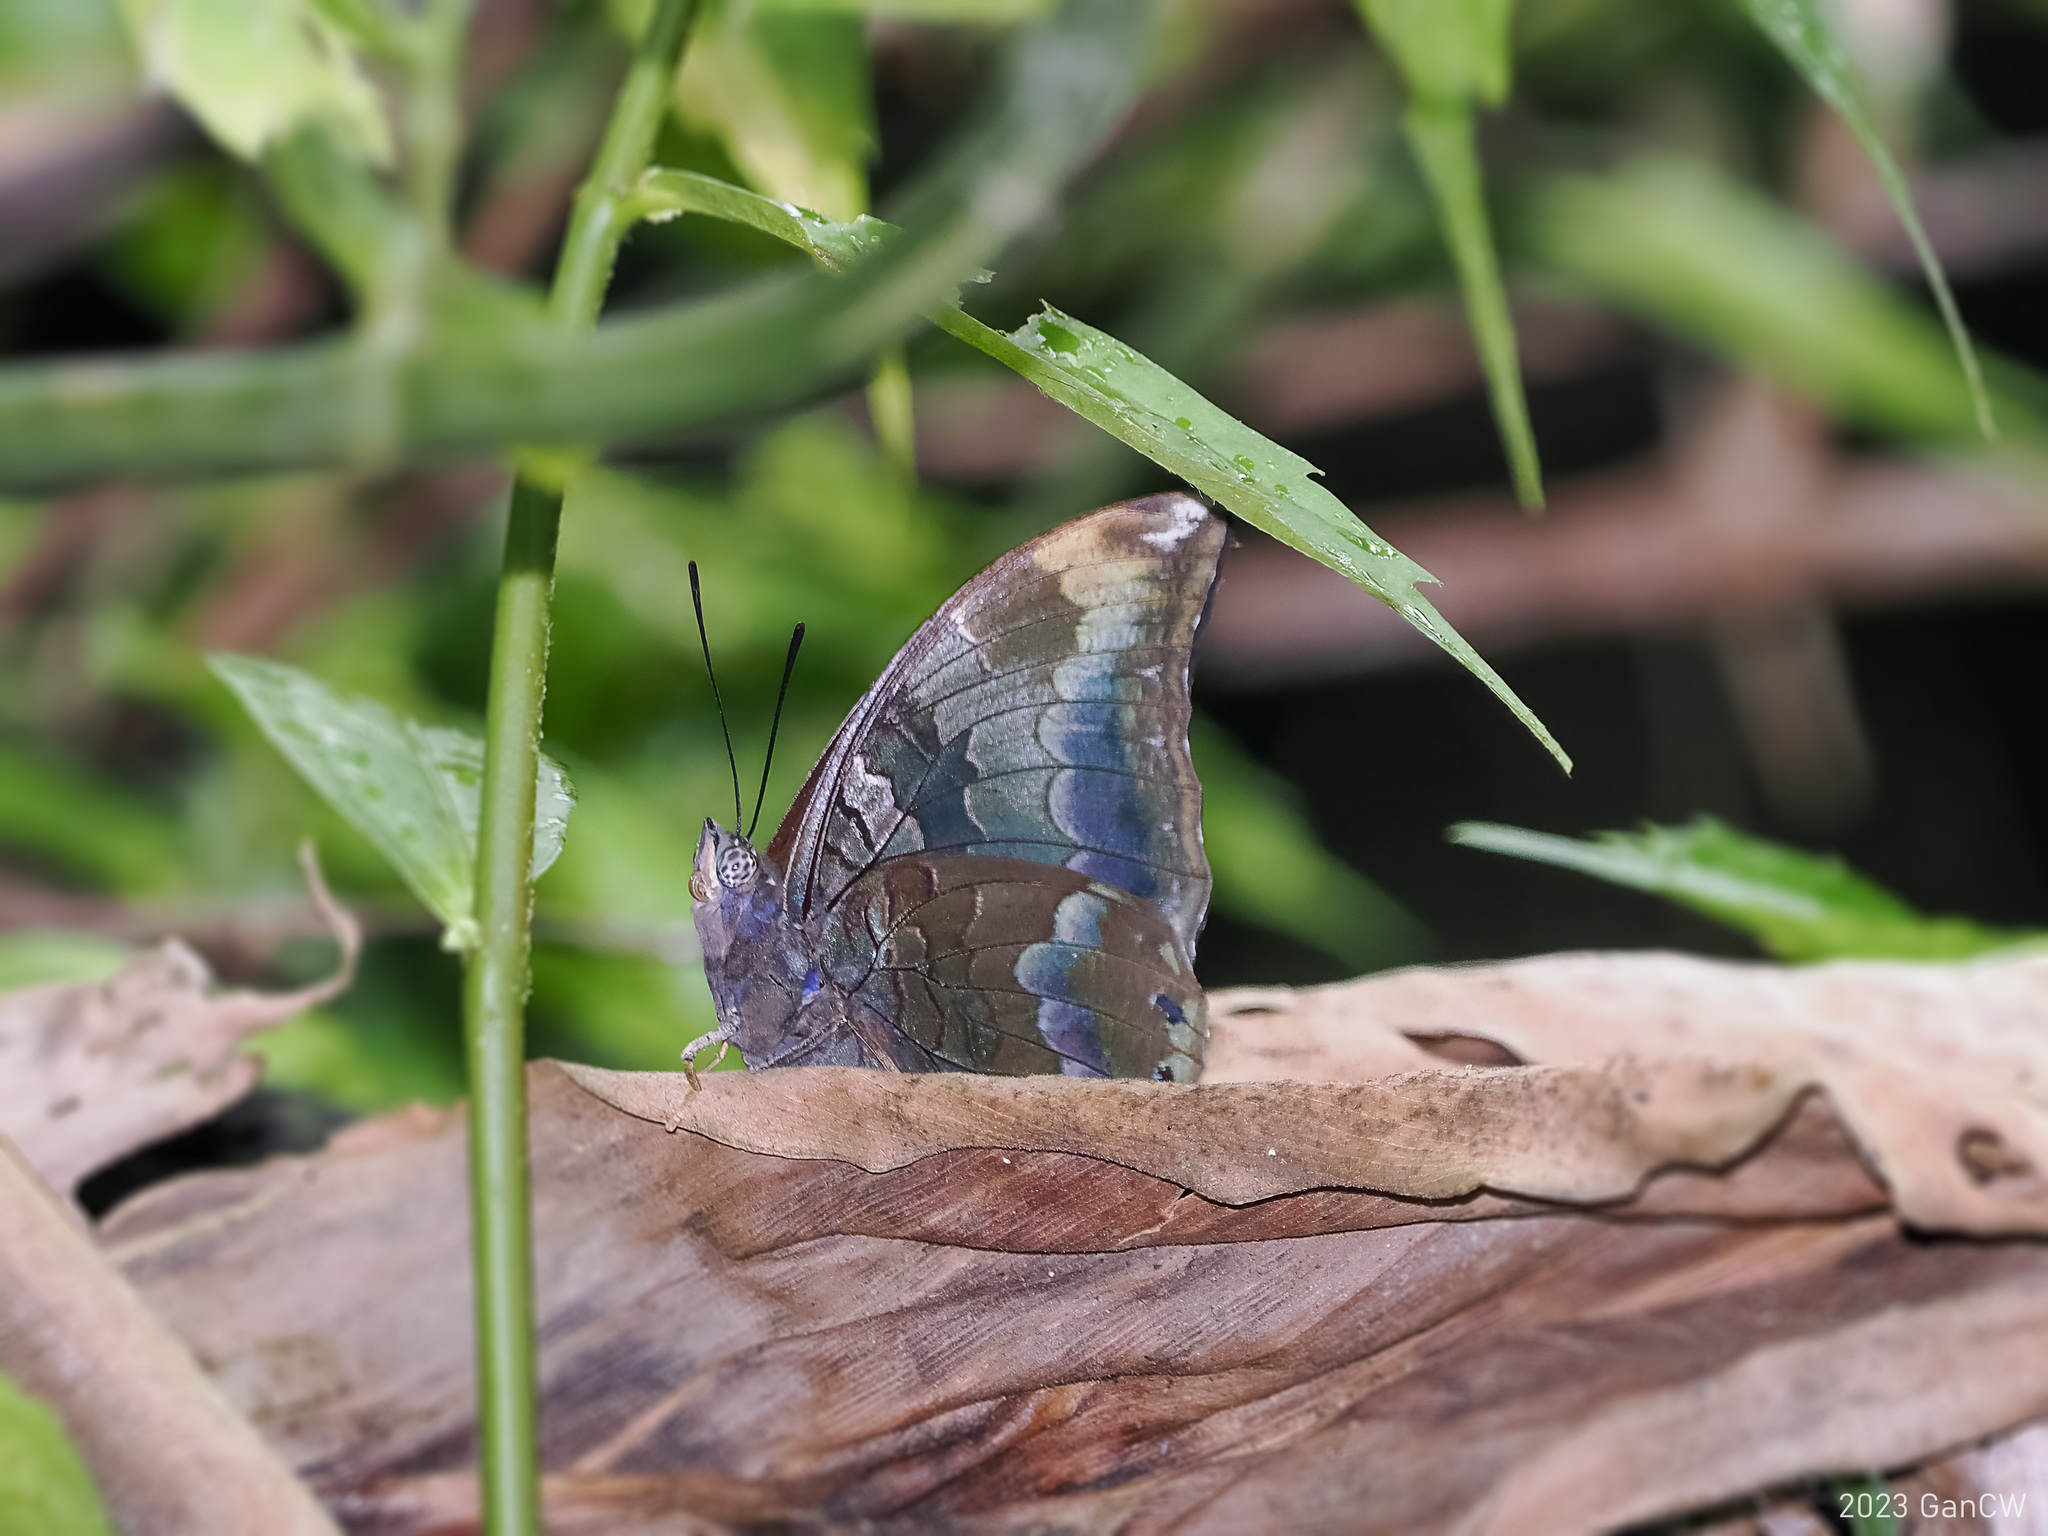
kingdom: Animalia
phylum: Arthropoda
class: Insecta
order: Lepidoptera
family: Nymphalidae
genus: Charaxes
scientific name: Charaxes mars
